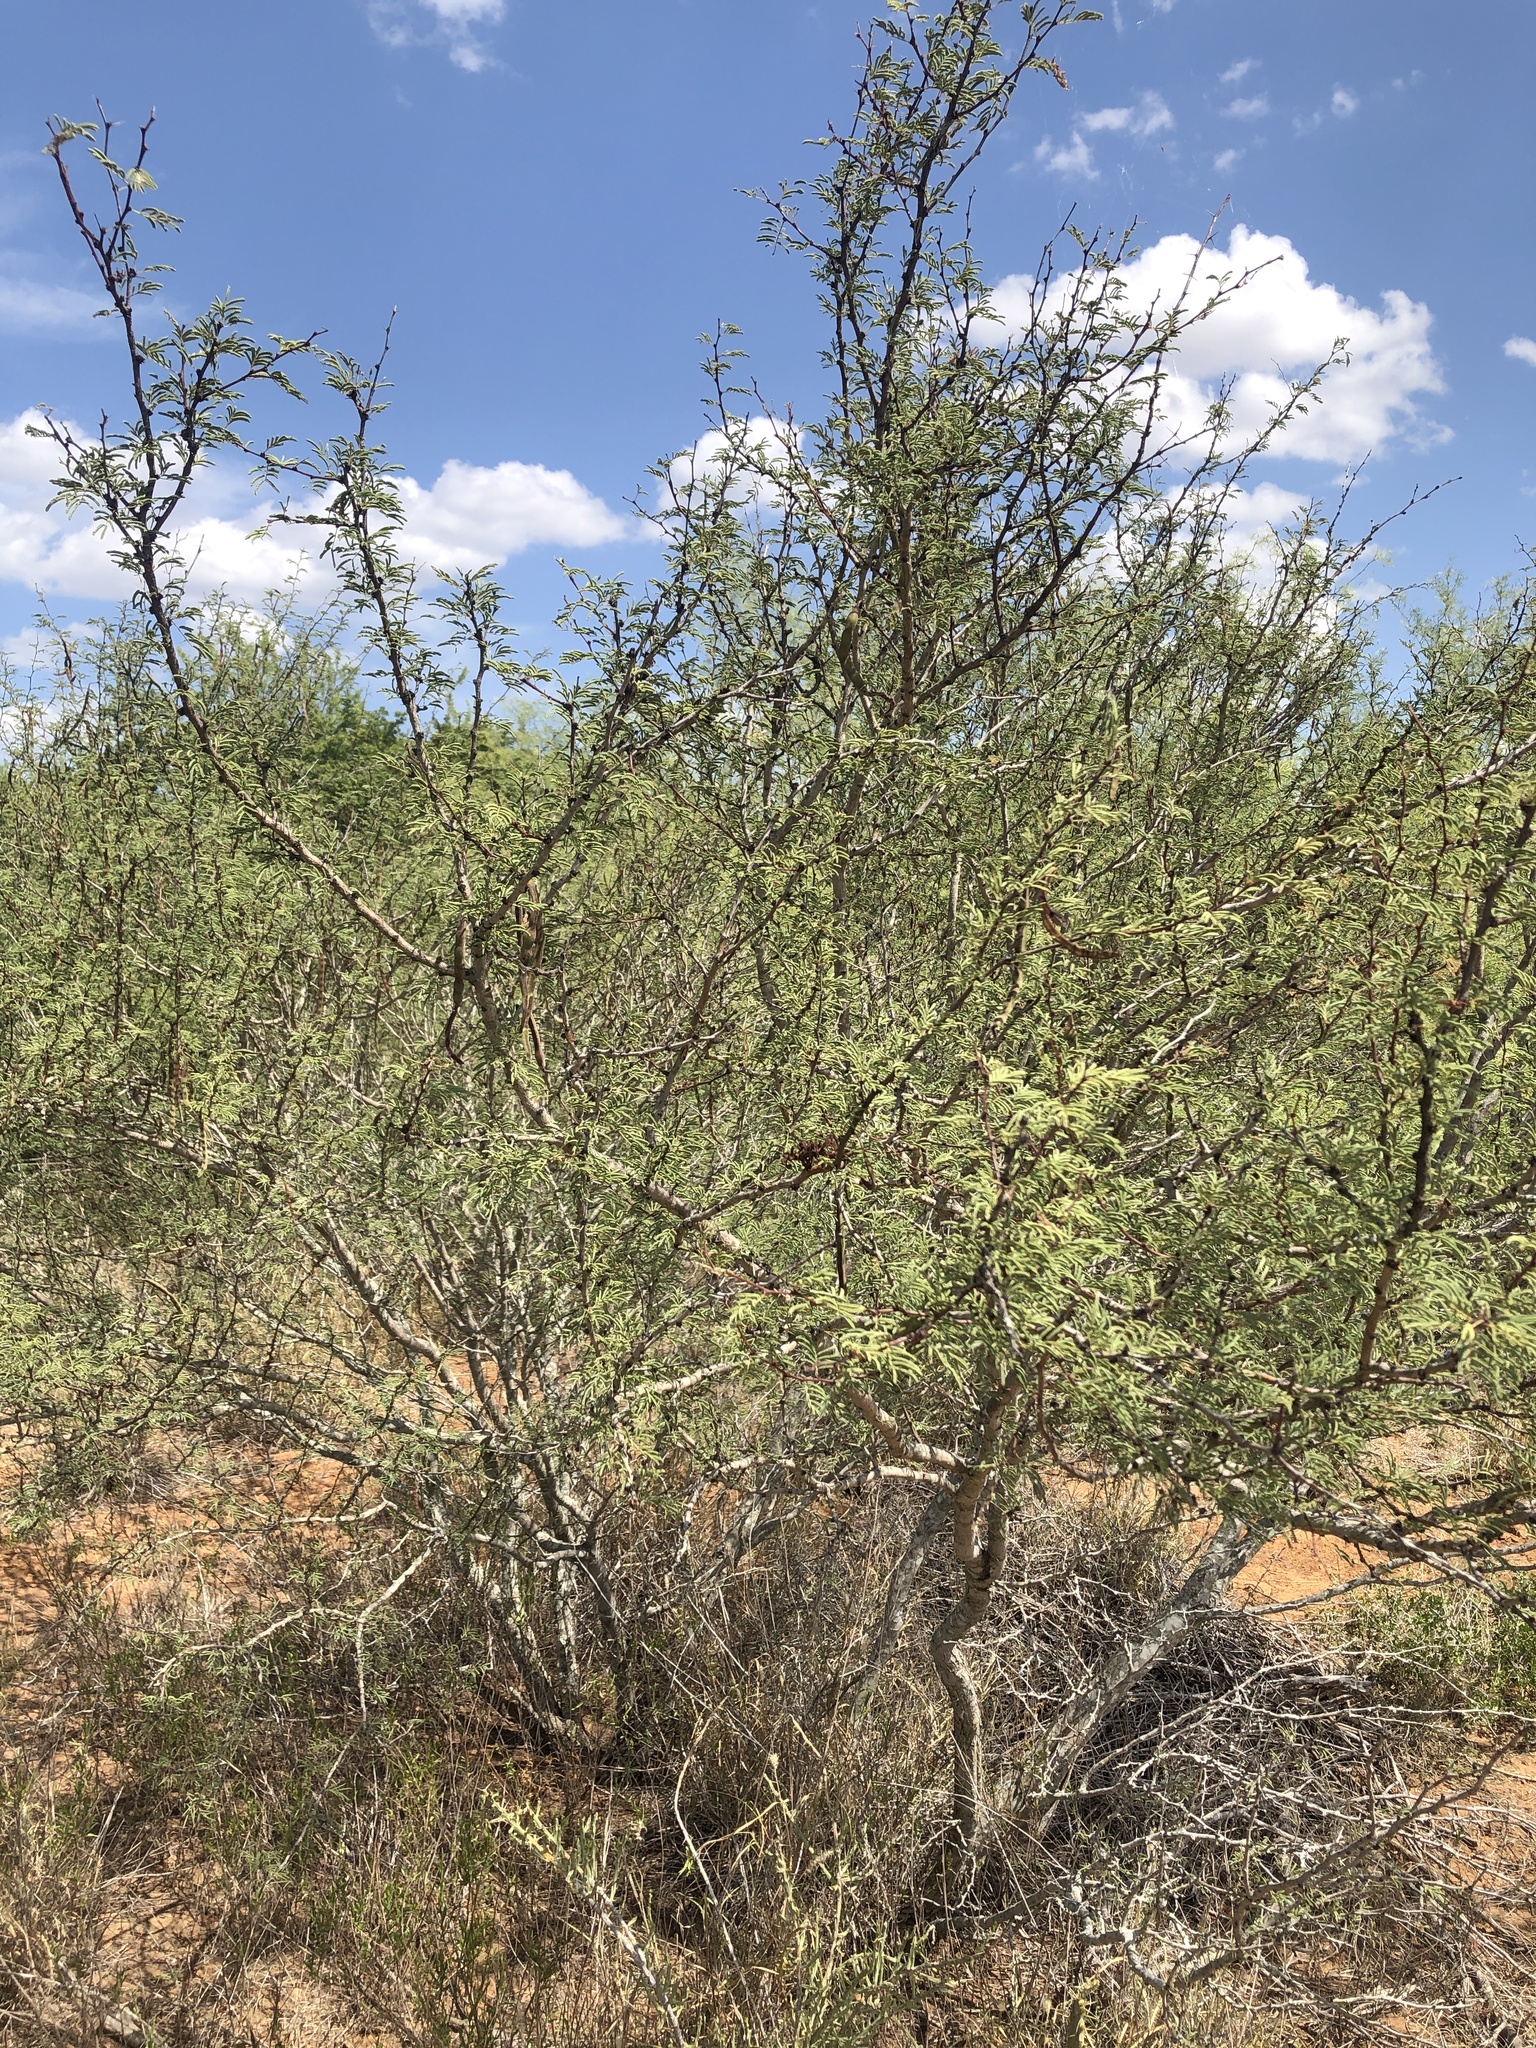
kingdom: Plantae
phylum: Tracheophyta
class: Magnoliopsida
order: Fabales
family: Fabaceae
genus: Vachellia
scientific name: Vachellia schaffneri
